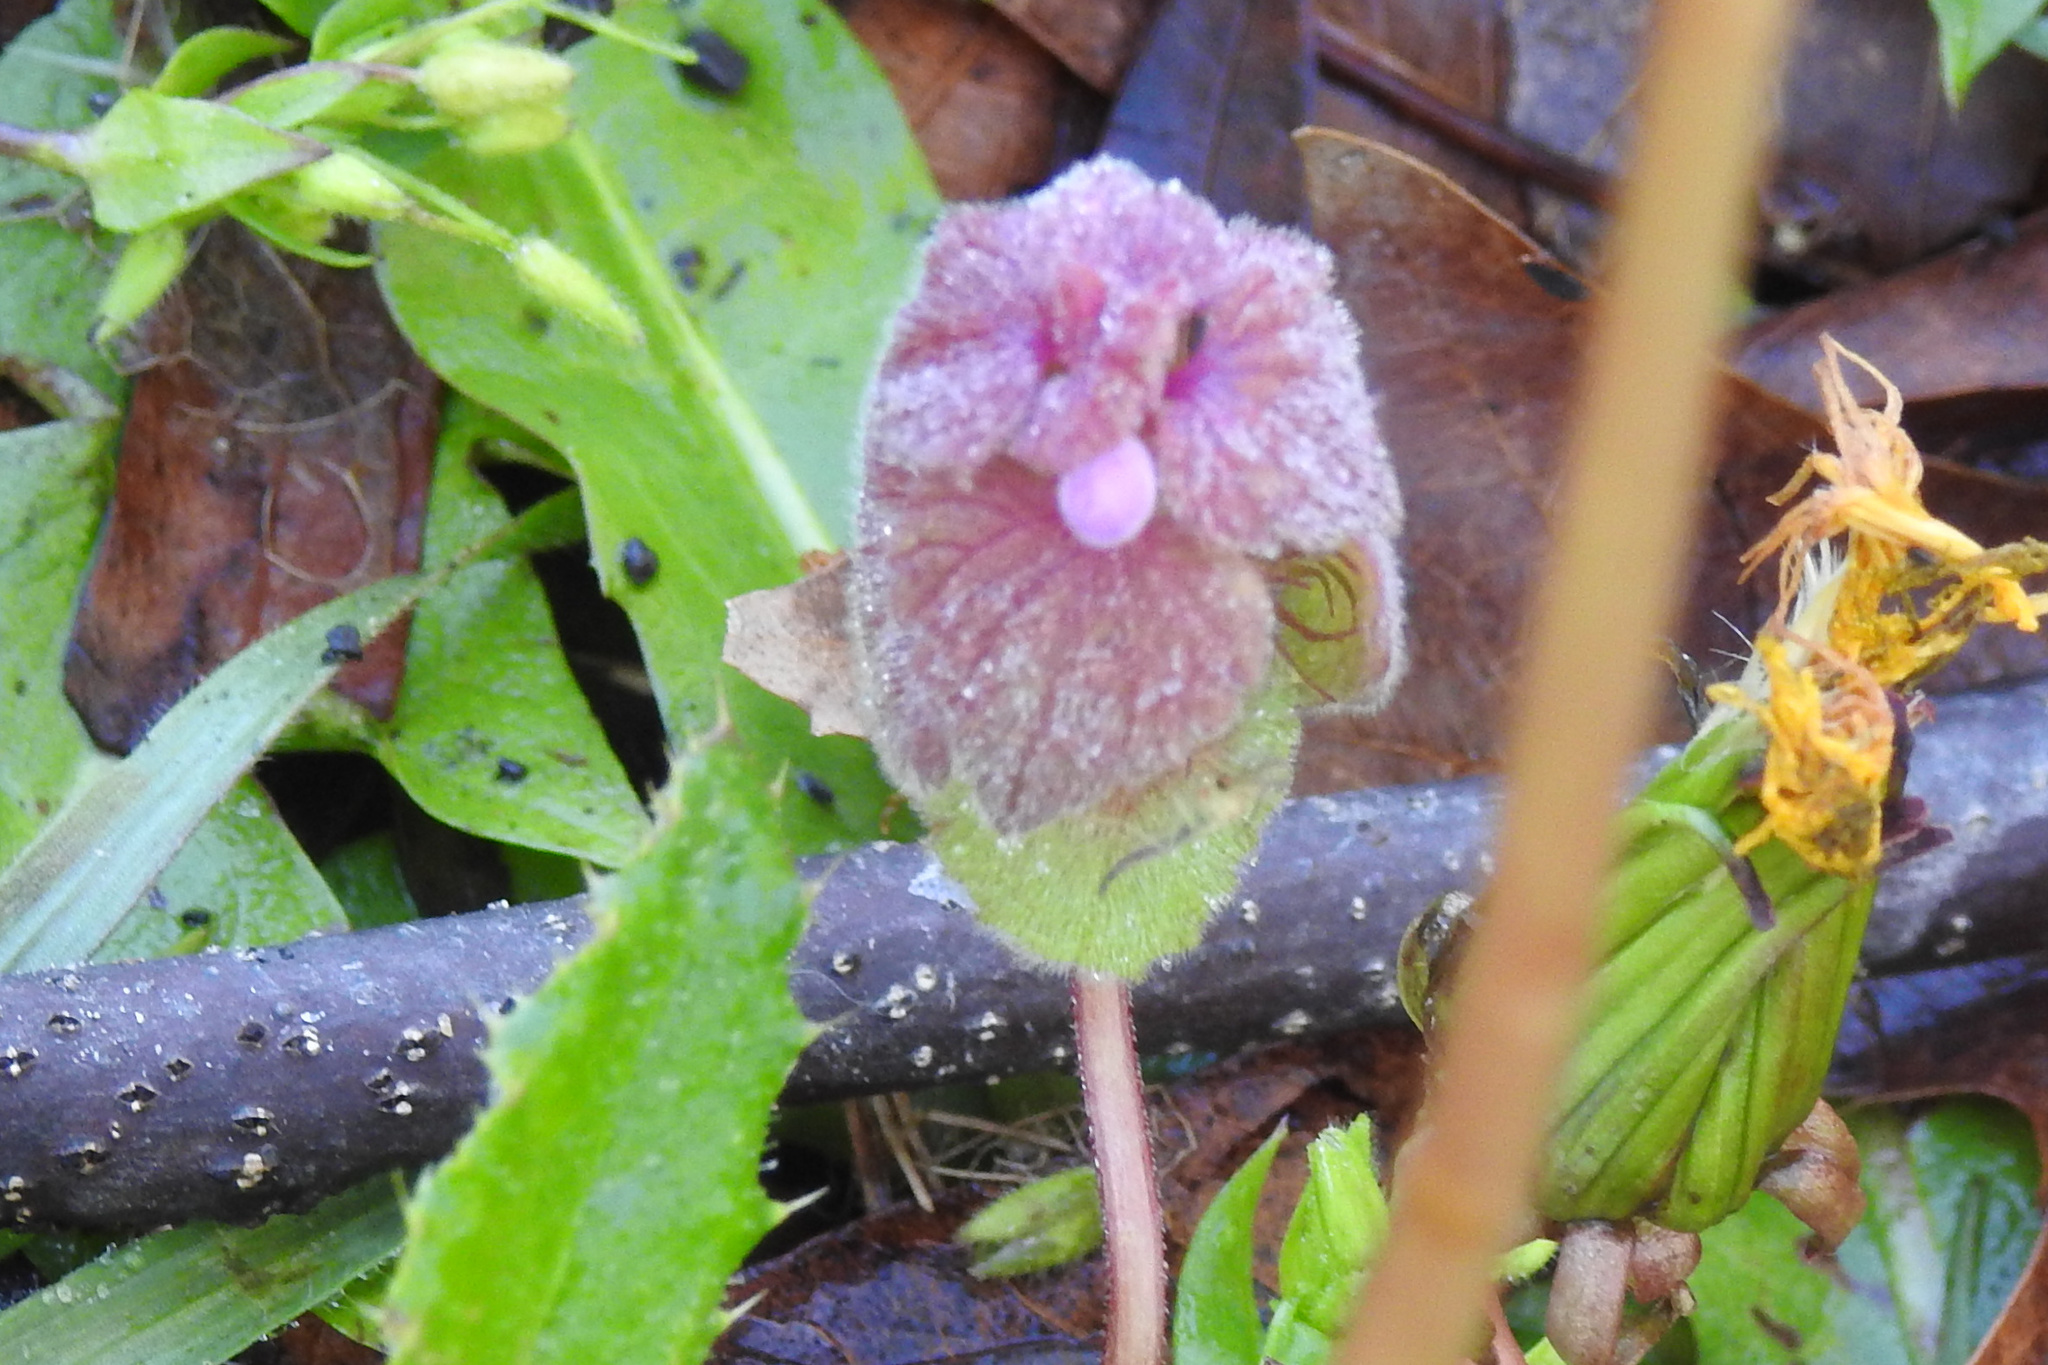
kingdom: Plantae
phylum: Tracheophyta
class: Magnoliopsida
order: Lamiales
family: Lamiaceae
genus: Lamium
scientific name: Lamium purpureum
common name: Red dead-nettle
